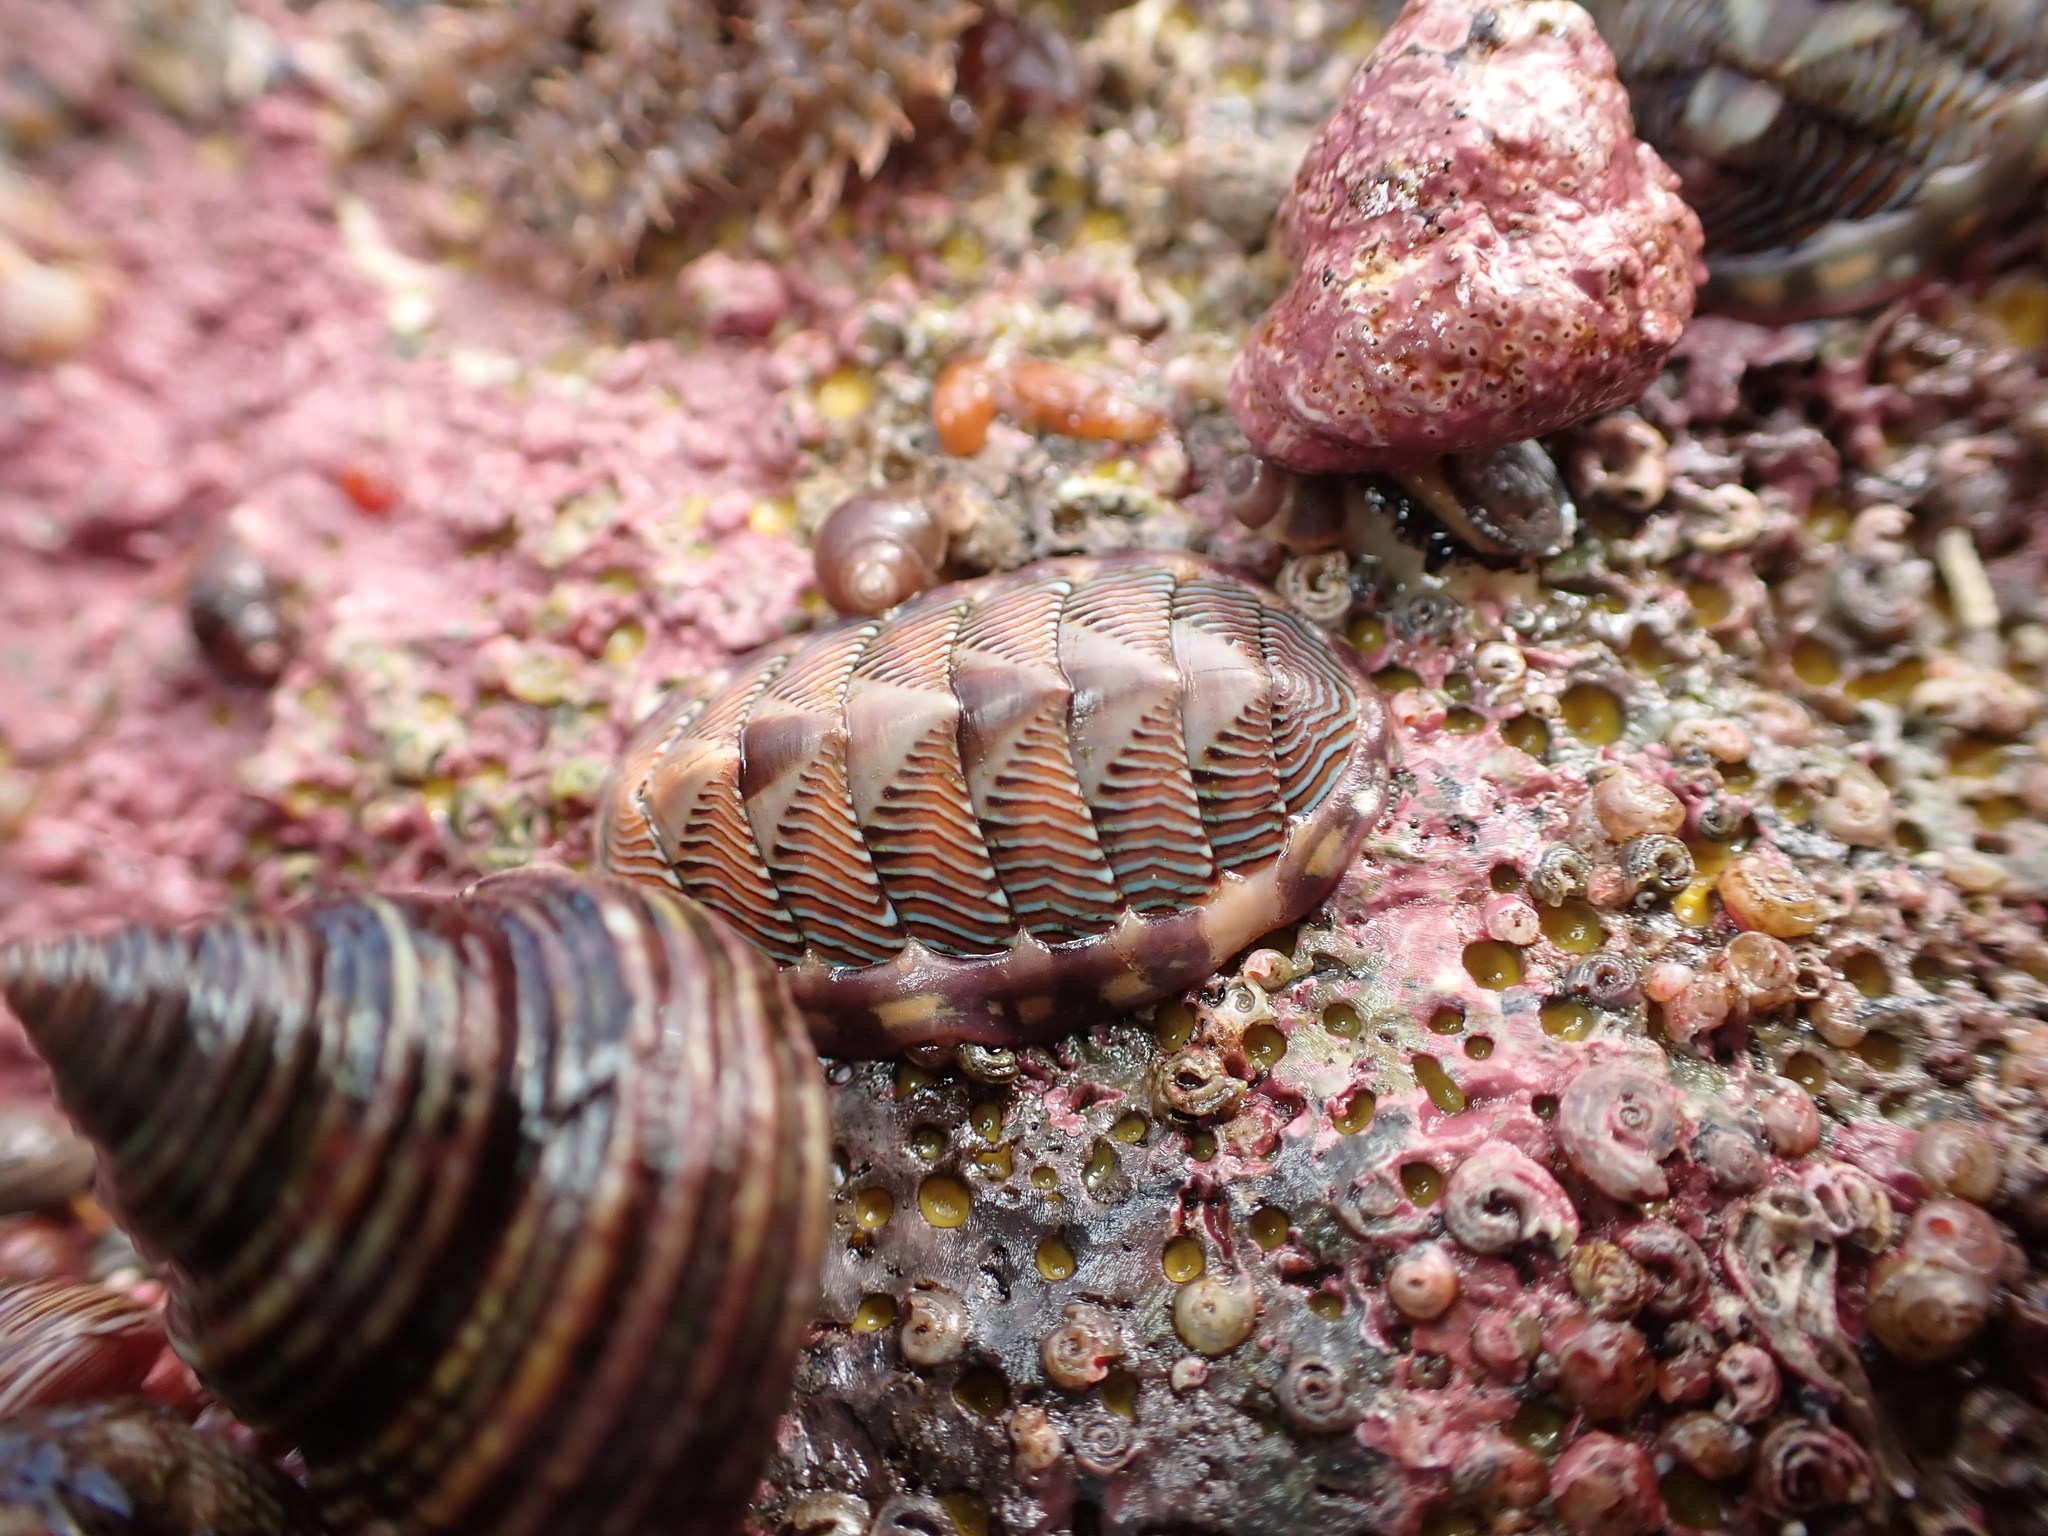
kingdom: Animalia
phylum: Mollusca
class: Polyplacophora
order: Chitonida
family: Tonicellidae
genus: Tonicella
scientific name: Tonicella lineata
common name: Lined chiton
